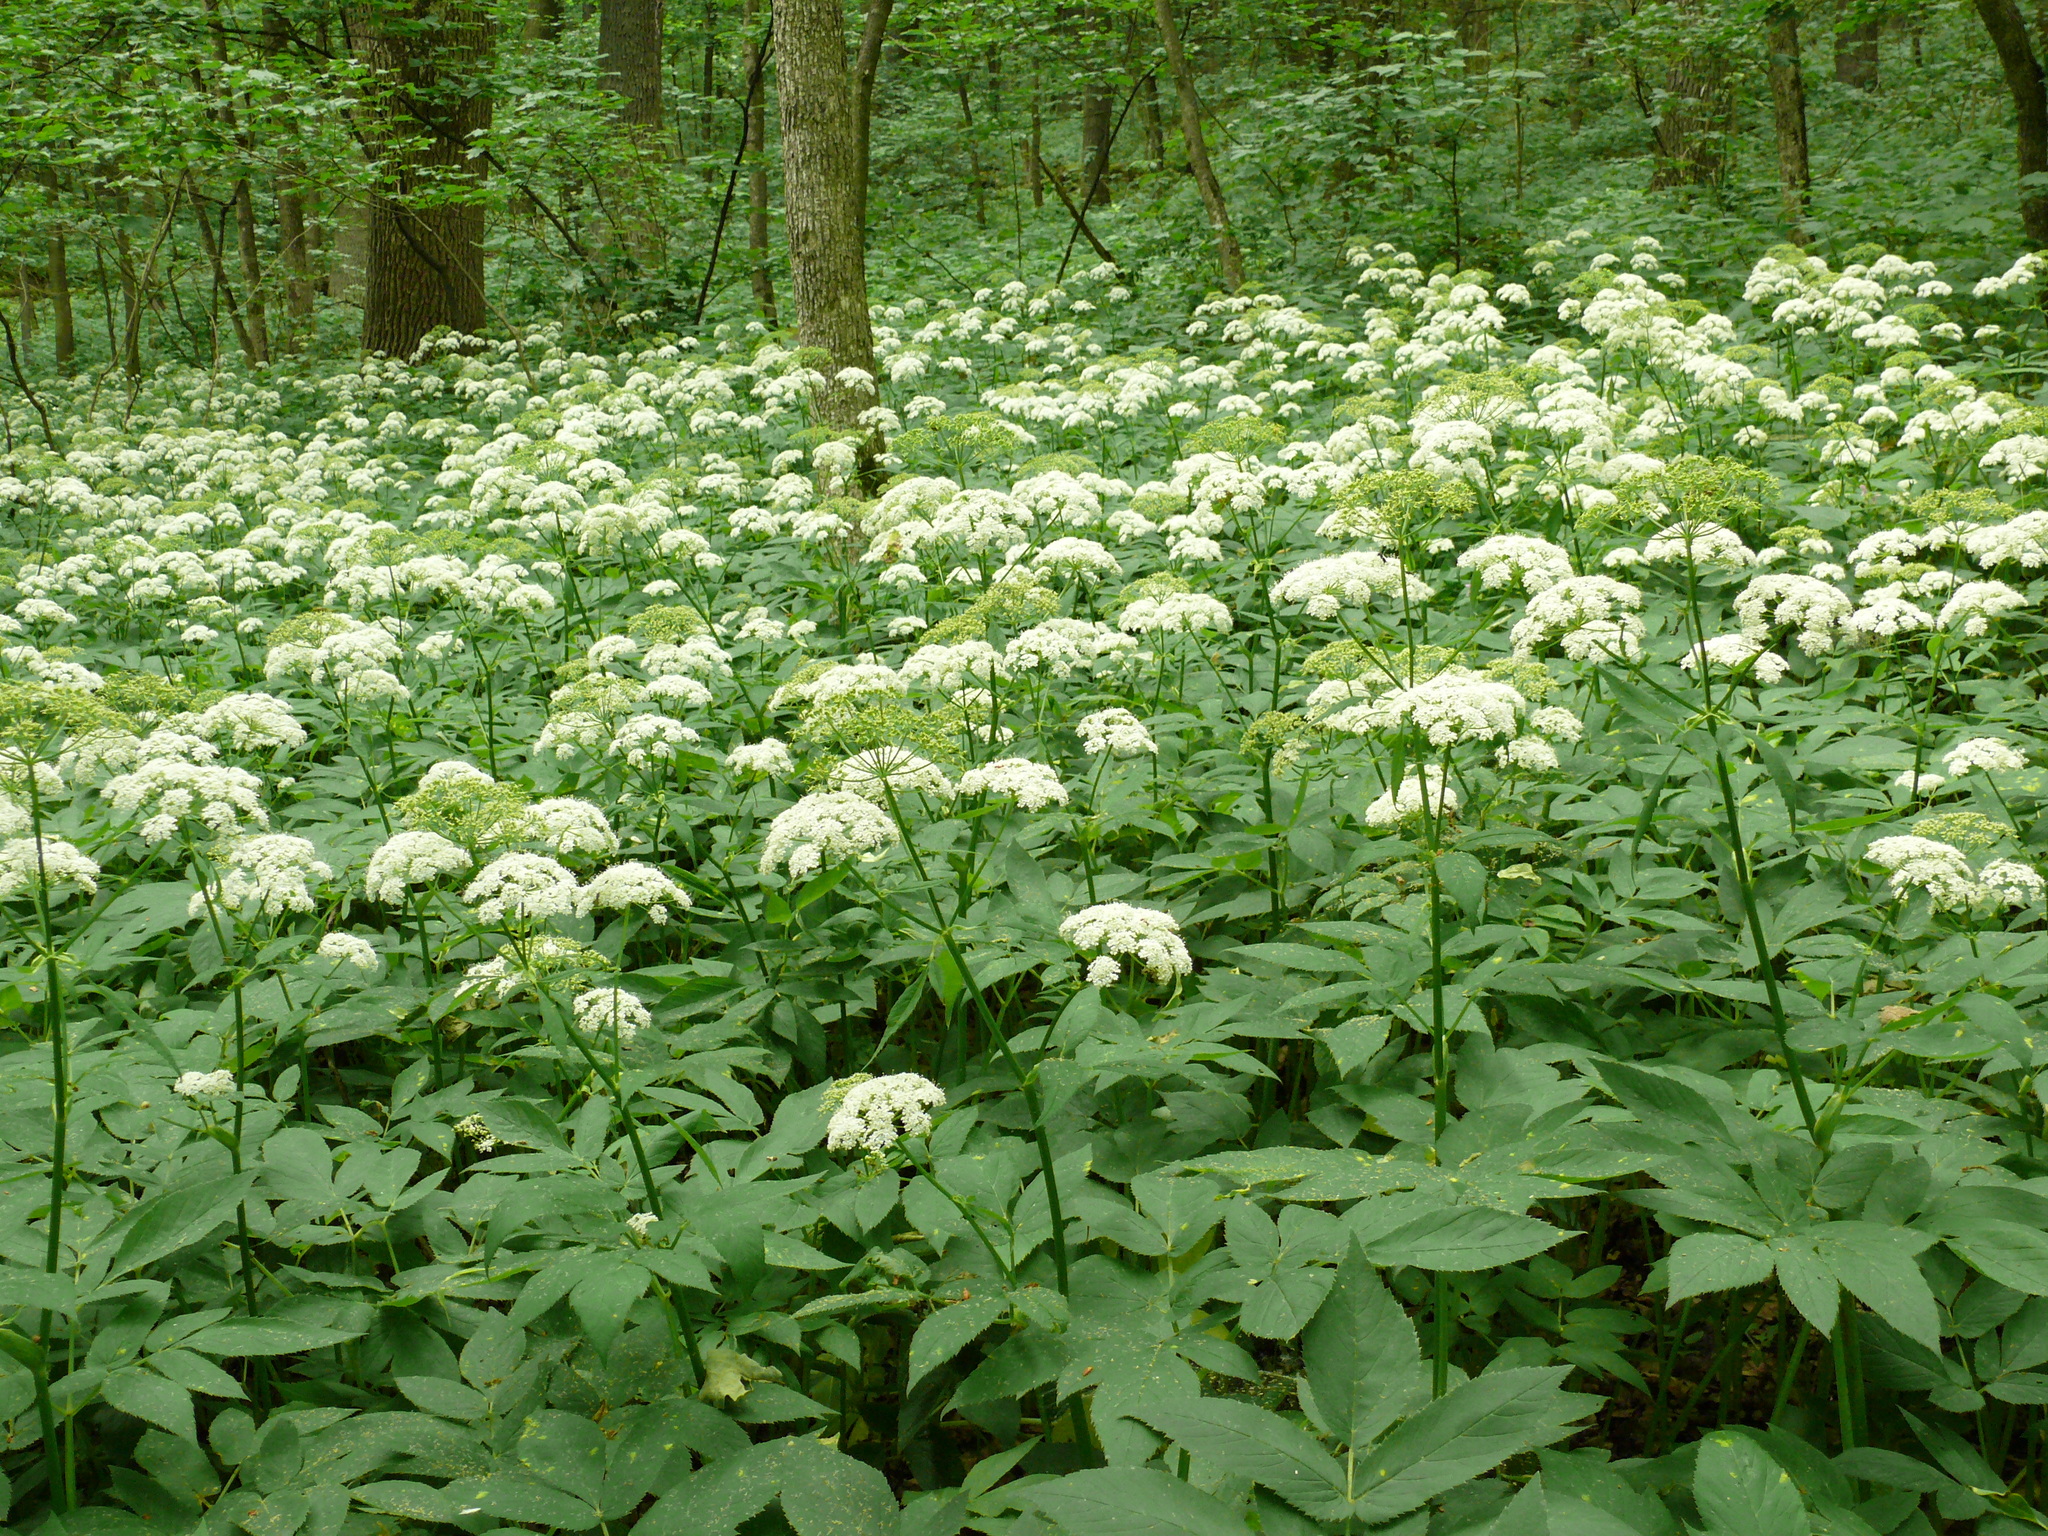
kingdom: Plantae
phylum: Tracheophyta
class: Magnoliopsida
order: Apiales
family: Apiaceae
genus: Aegopodium
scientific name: Aegopodium podagraria
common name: Ground-elder
